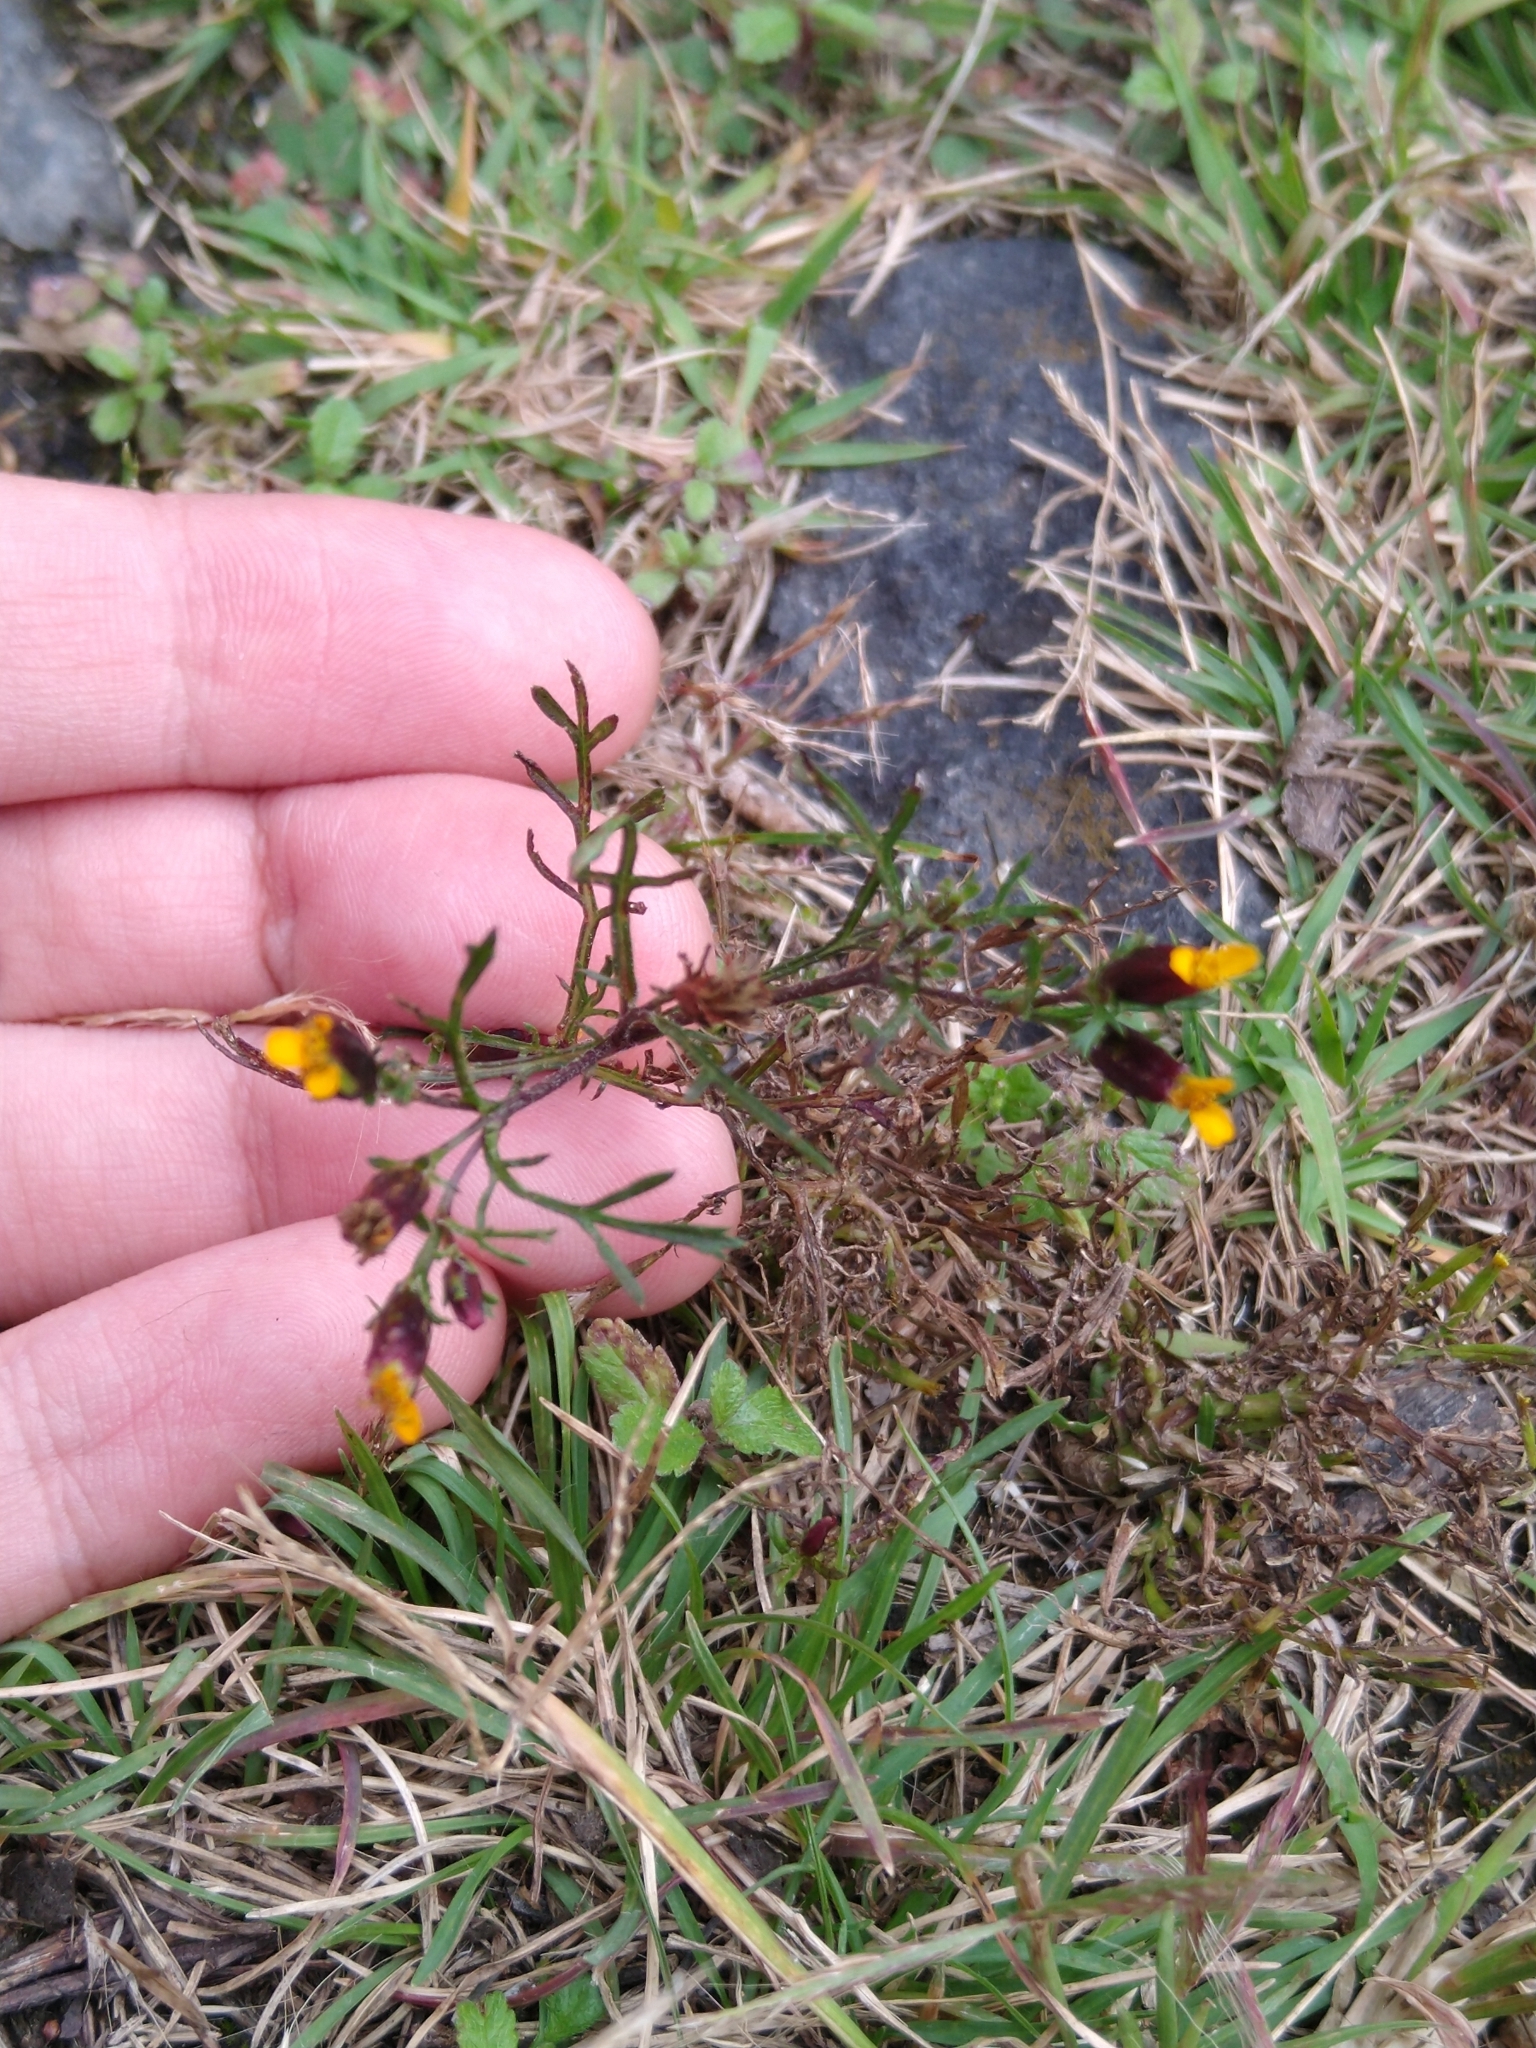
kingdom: Plantae
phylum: Tracheophyta
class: Magnoliopsida
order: Asterales
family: Asteraceae
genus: Dyssodia
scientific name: Dyssodia papposa
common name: Dogweed
